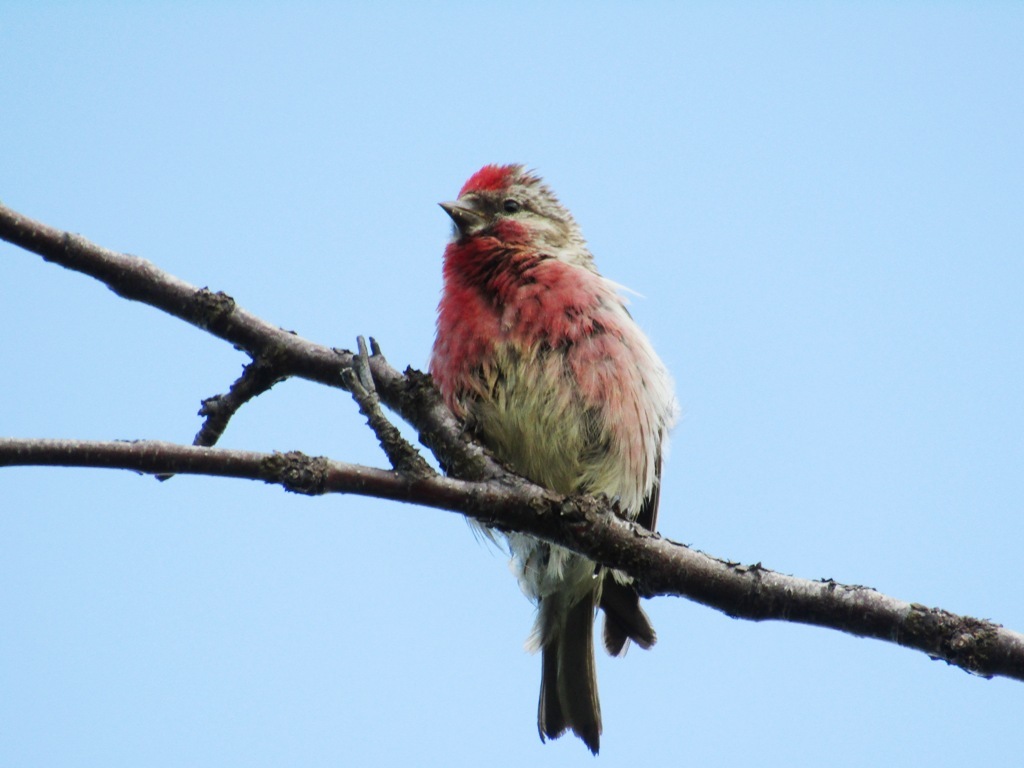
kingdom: Animalia
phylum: Chordata
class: Aves
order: Passeriformes
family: Fringillidae
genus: Acanthis
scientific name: Acanthis flammea
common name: Common redpoll
